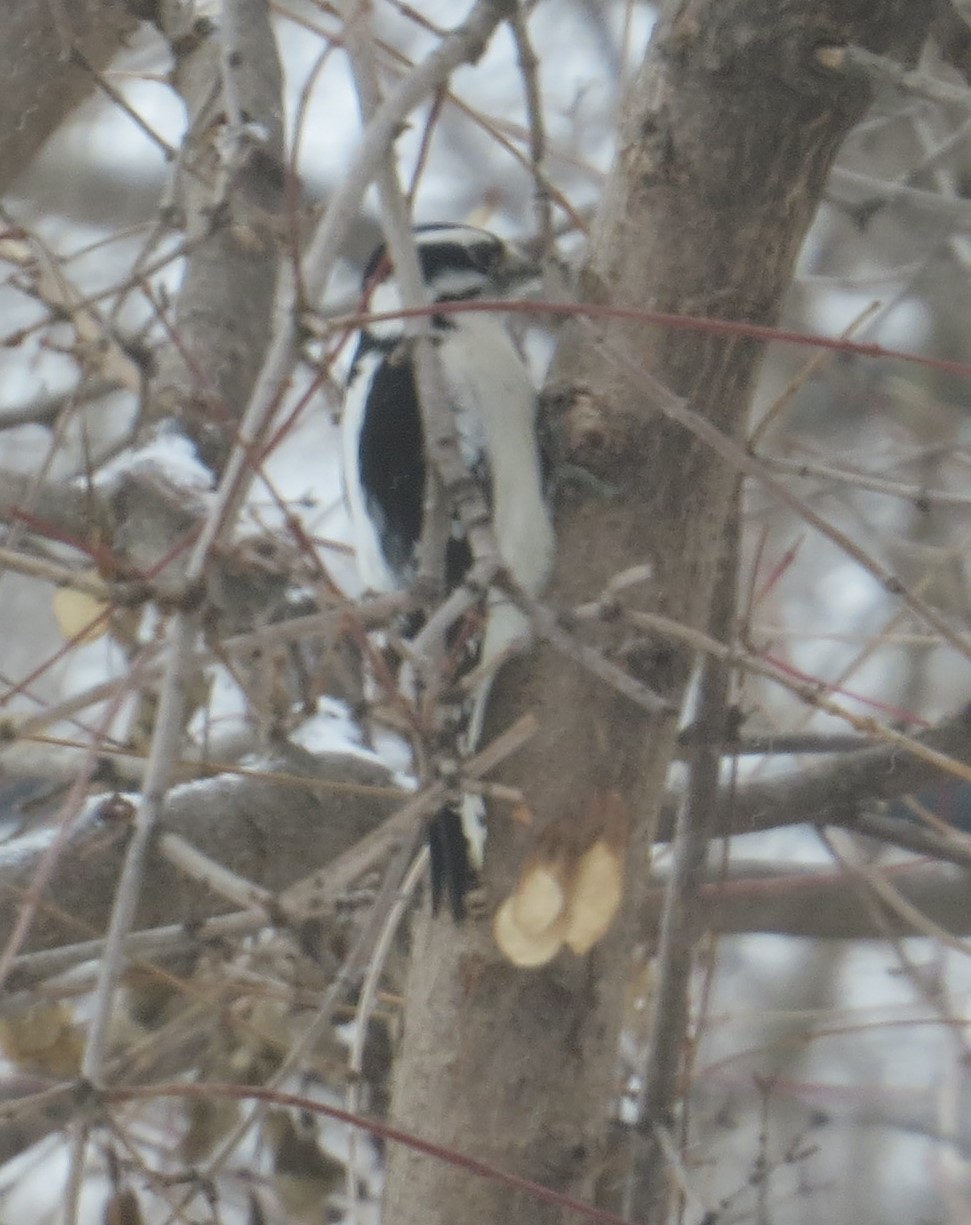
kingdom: Animalia
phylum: Chordata
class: Aves
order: Piciformes
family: Picidae
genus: Dryobates
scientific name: Dryobates pubescens
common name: Downy woodpecker
